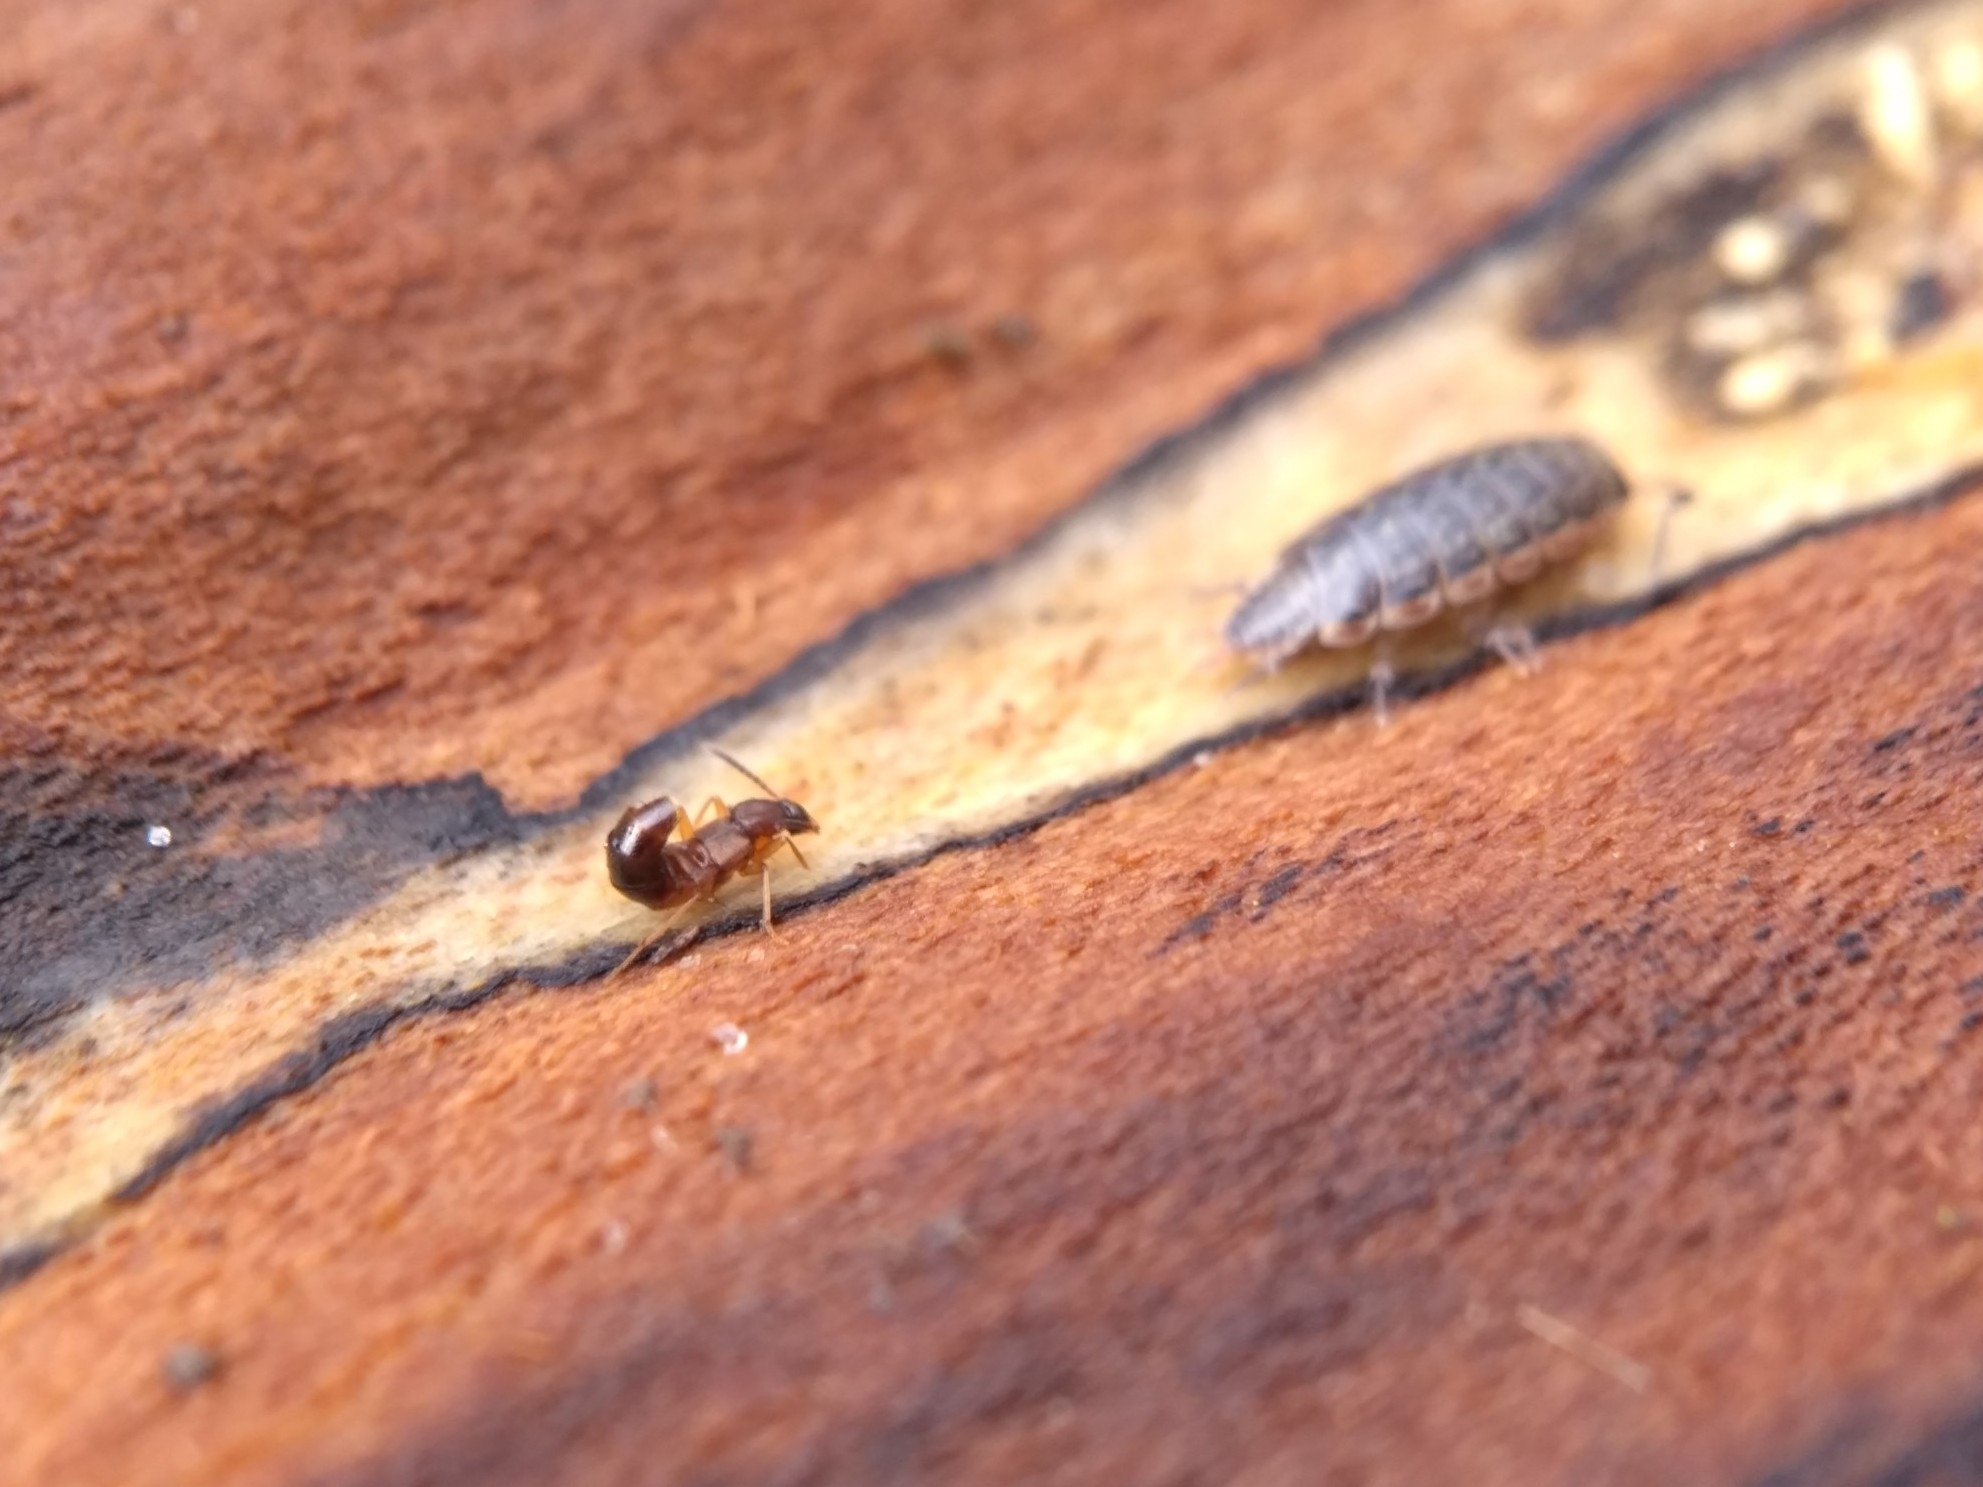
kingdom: Animalia
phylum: Arthropoda
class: Malacostraca
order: Isopoda
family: Philosciidae
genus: Philoscia
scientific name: Philoscia muscorum
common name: Common striped woodlouse
